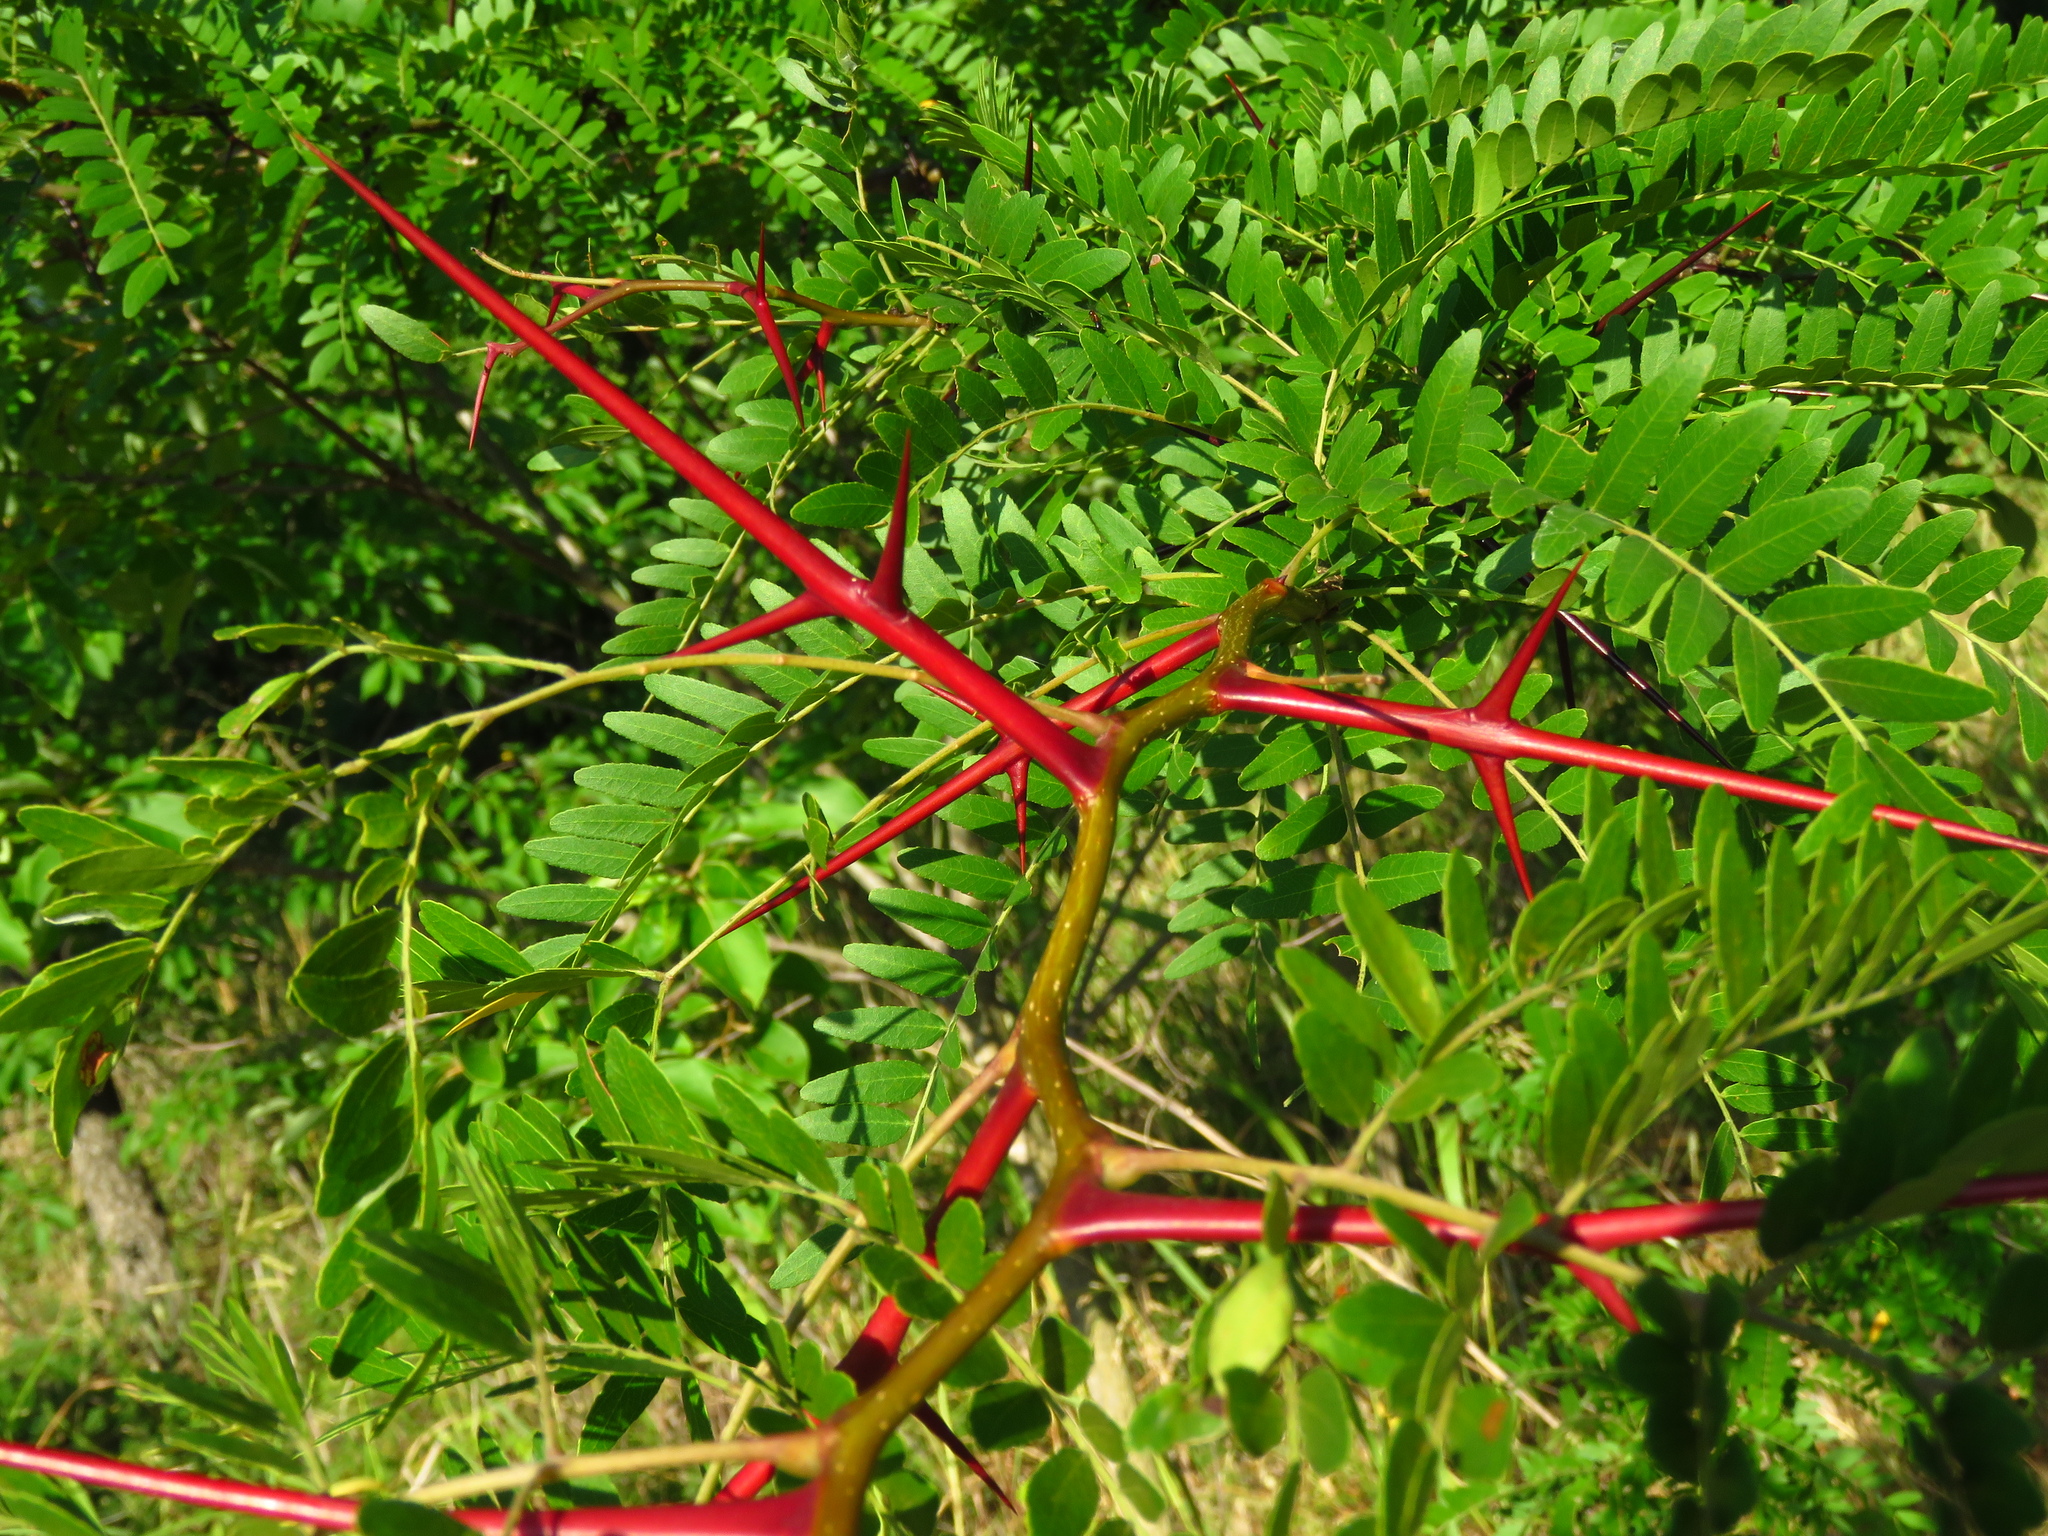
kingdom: Plantae
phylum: Tracheophyta
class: Magnoliopsida
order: Fabales
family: Fabaceae
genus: Gleditsia
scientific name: Gleditsia triacanthos
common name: Common honeylocust
